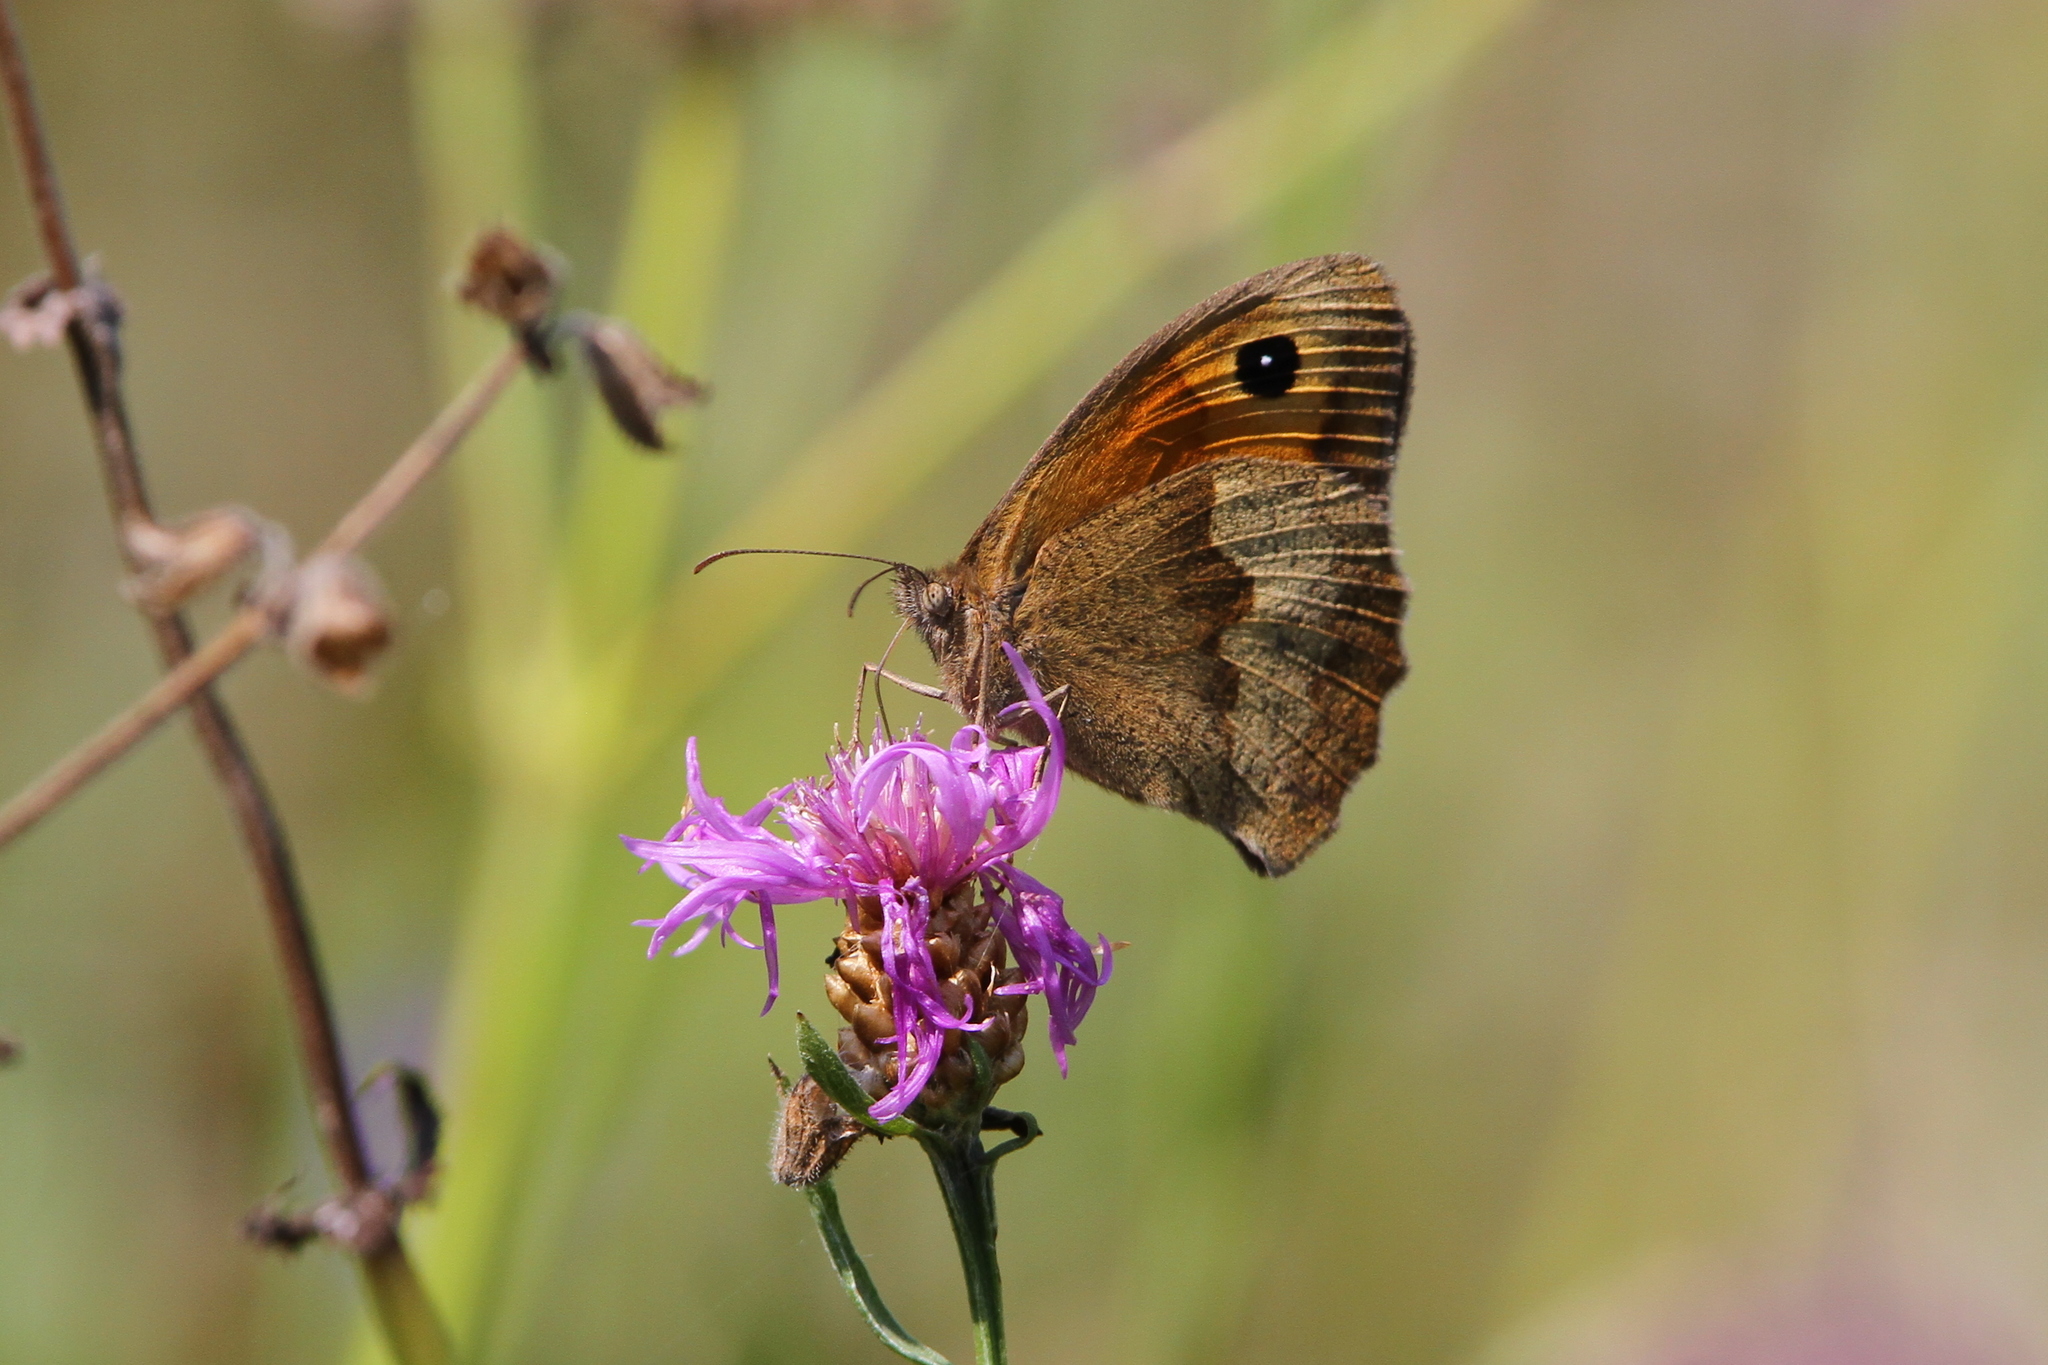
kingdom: Animalia
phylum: Arthropoda
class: Insecta
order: Lepidoptera
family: Nymphalidae
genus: Maniola
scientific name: Maniola jurtina
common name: Meadow brown
